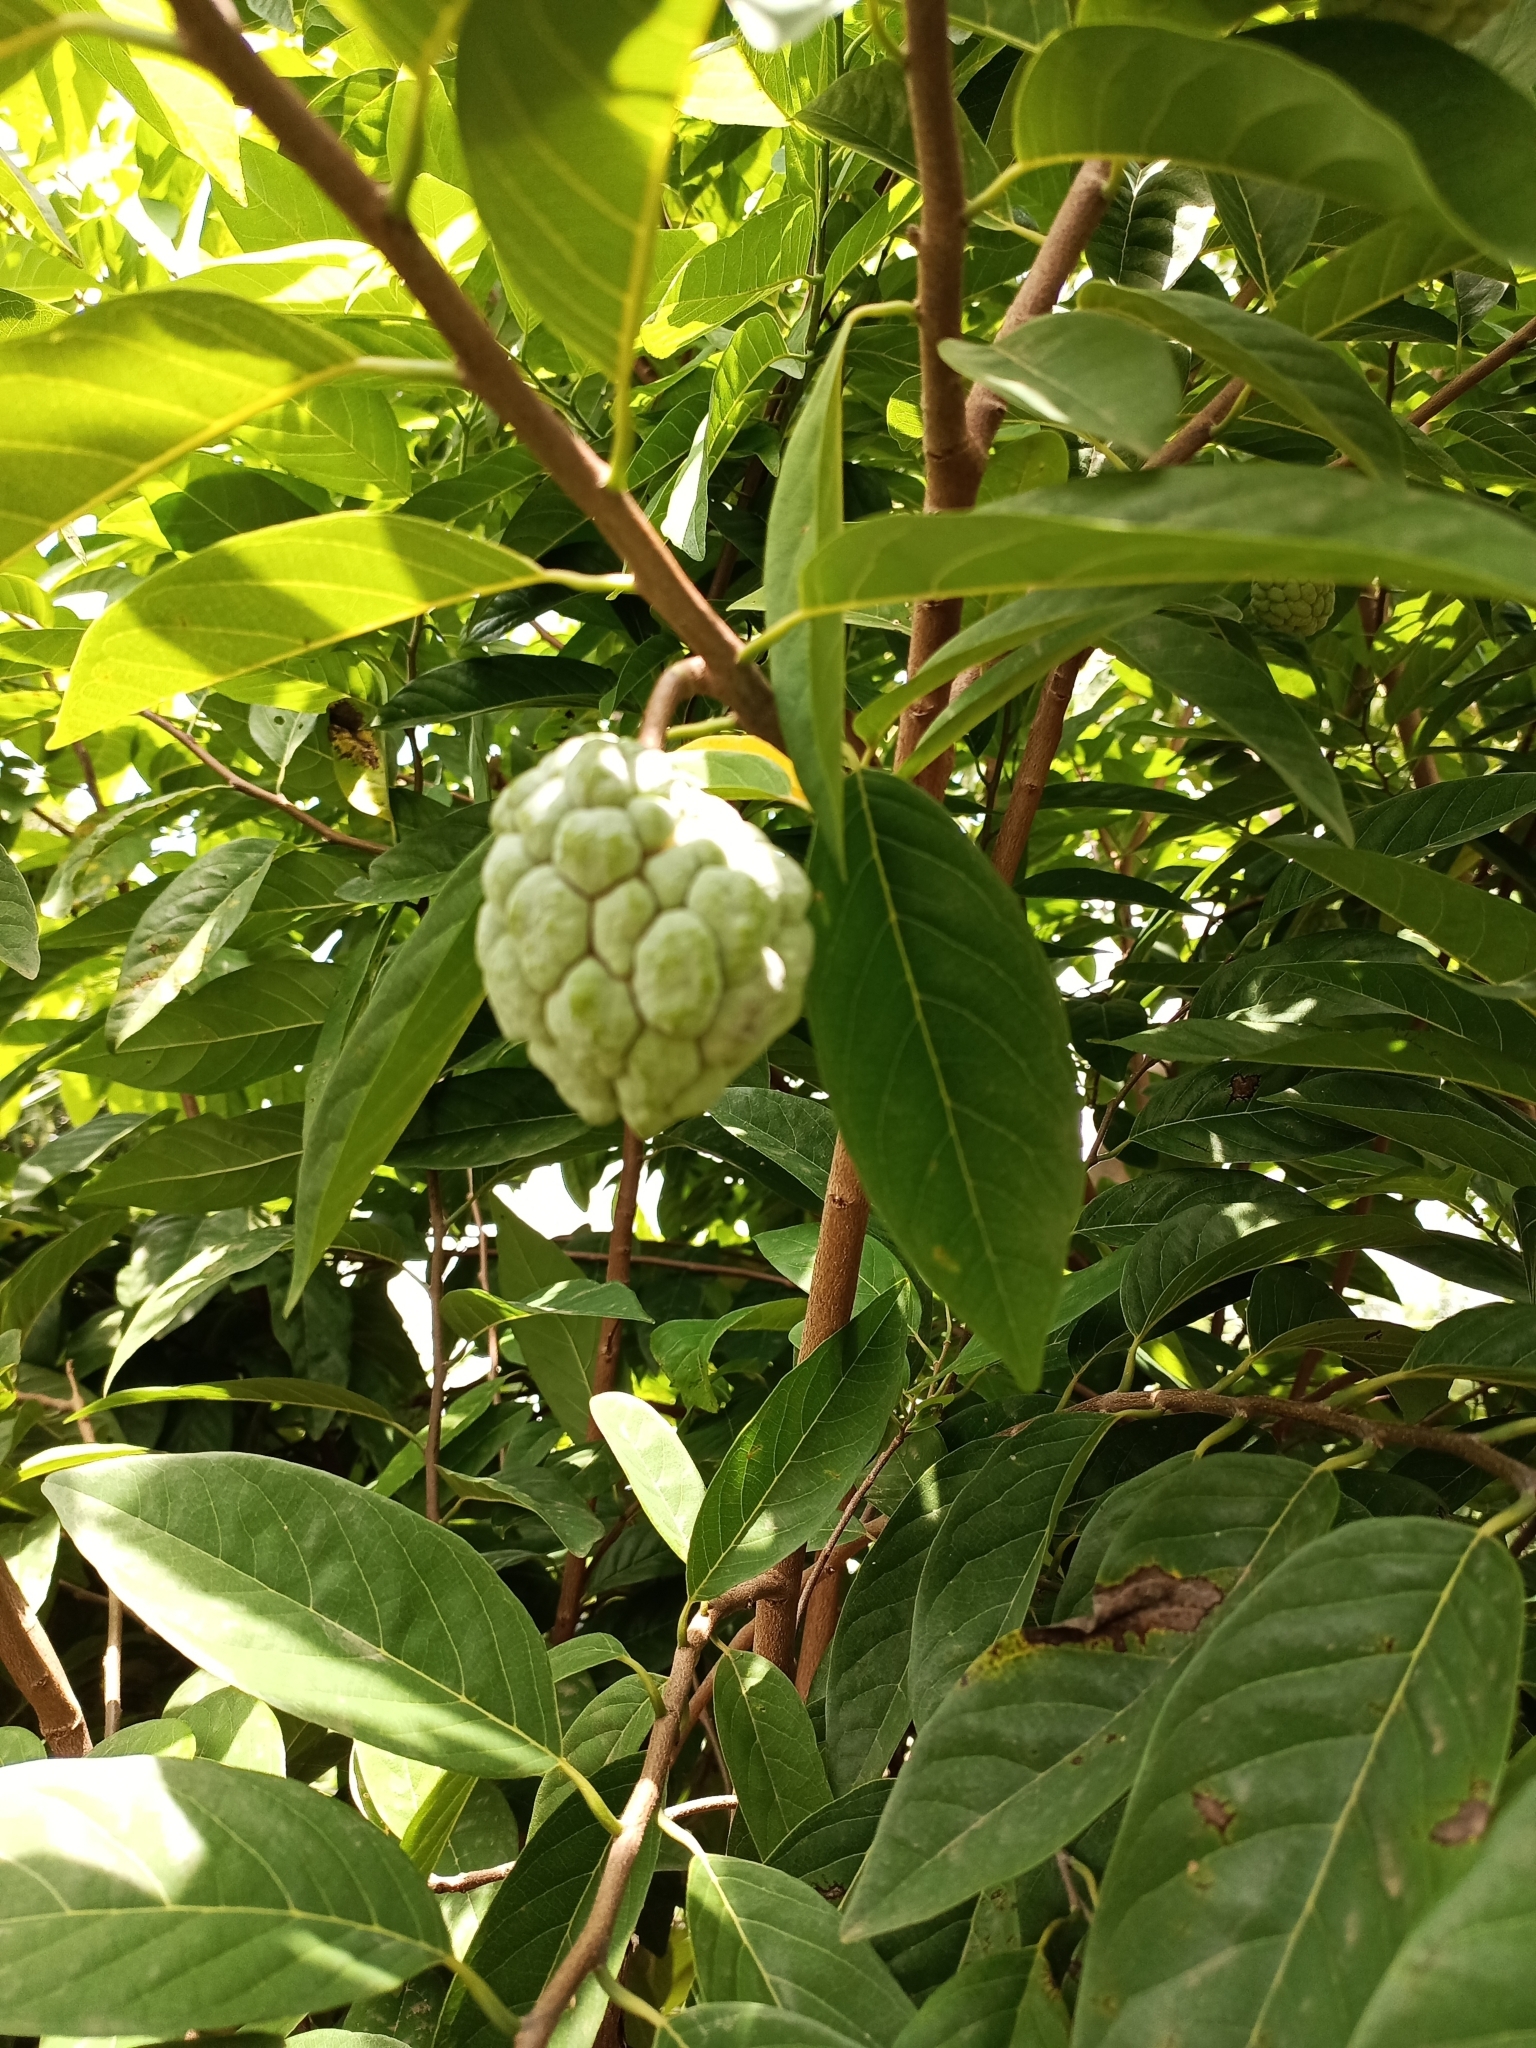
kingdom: Plantae
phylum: Tracheophyta
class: Magnoliopsida
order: Magnoliales
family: Annonaceae
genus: Annona
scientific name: Annona squamosa
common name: Custard-apple
